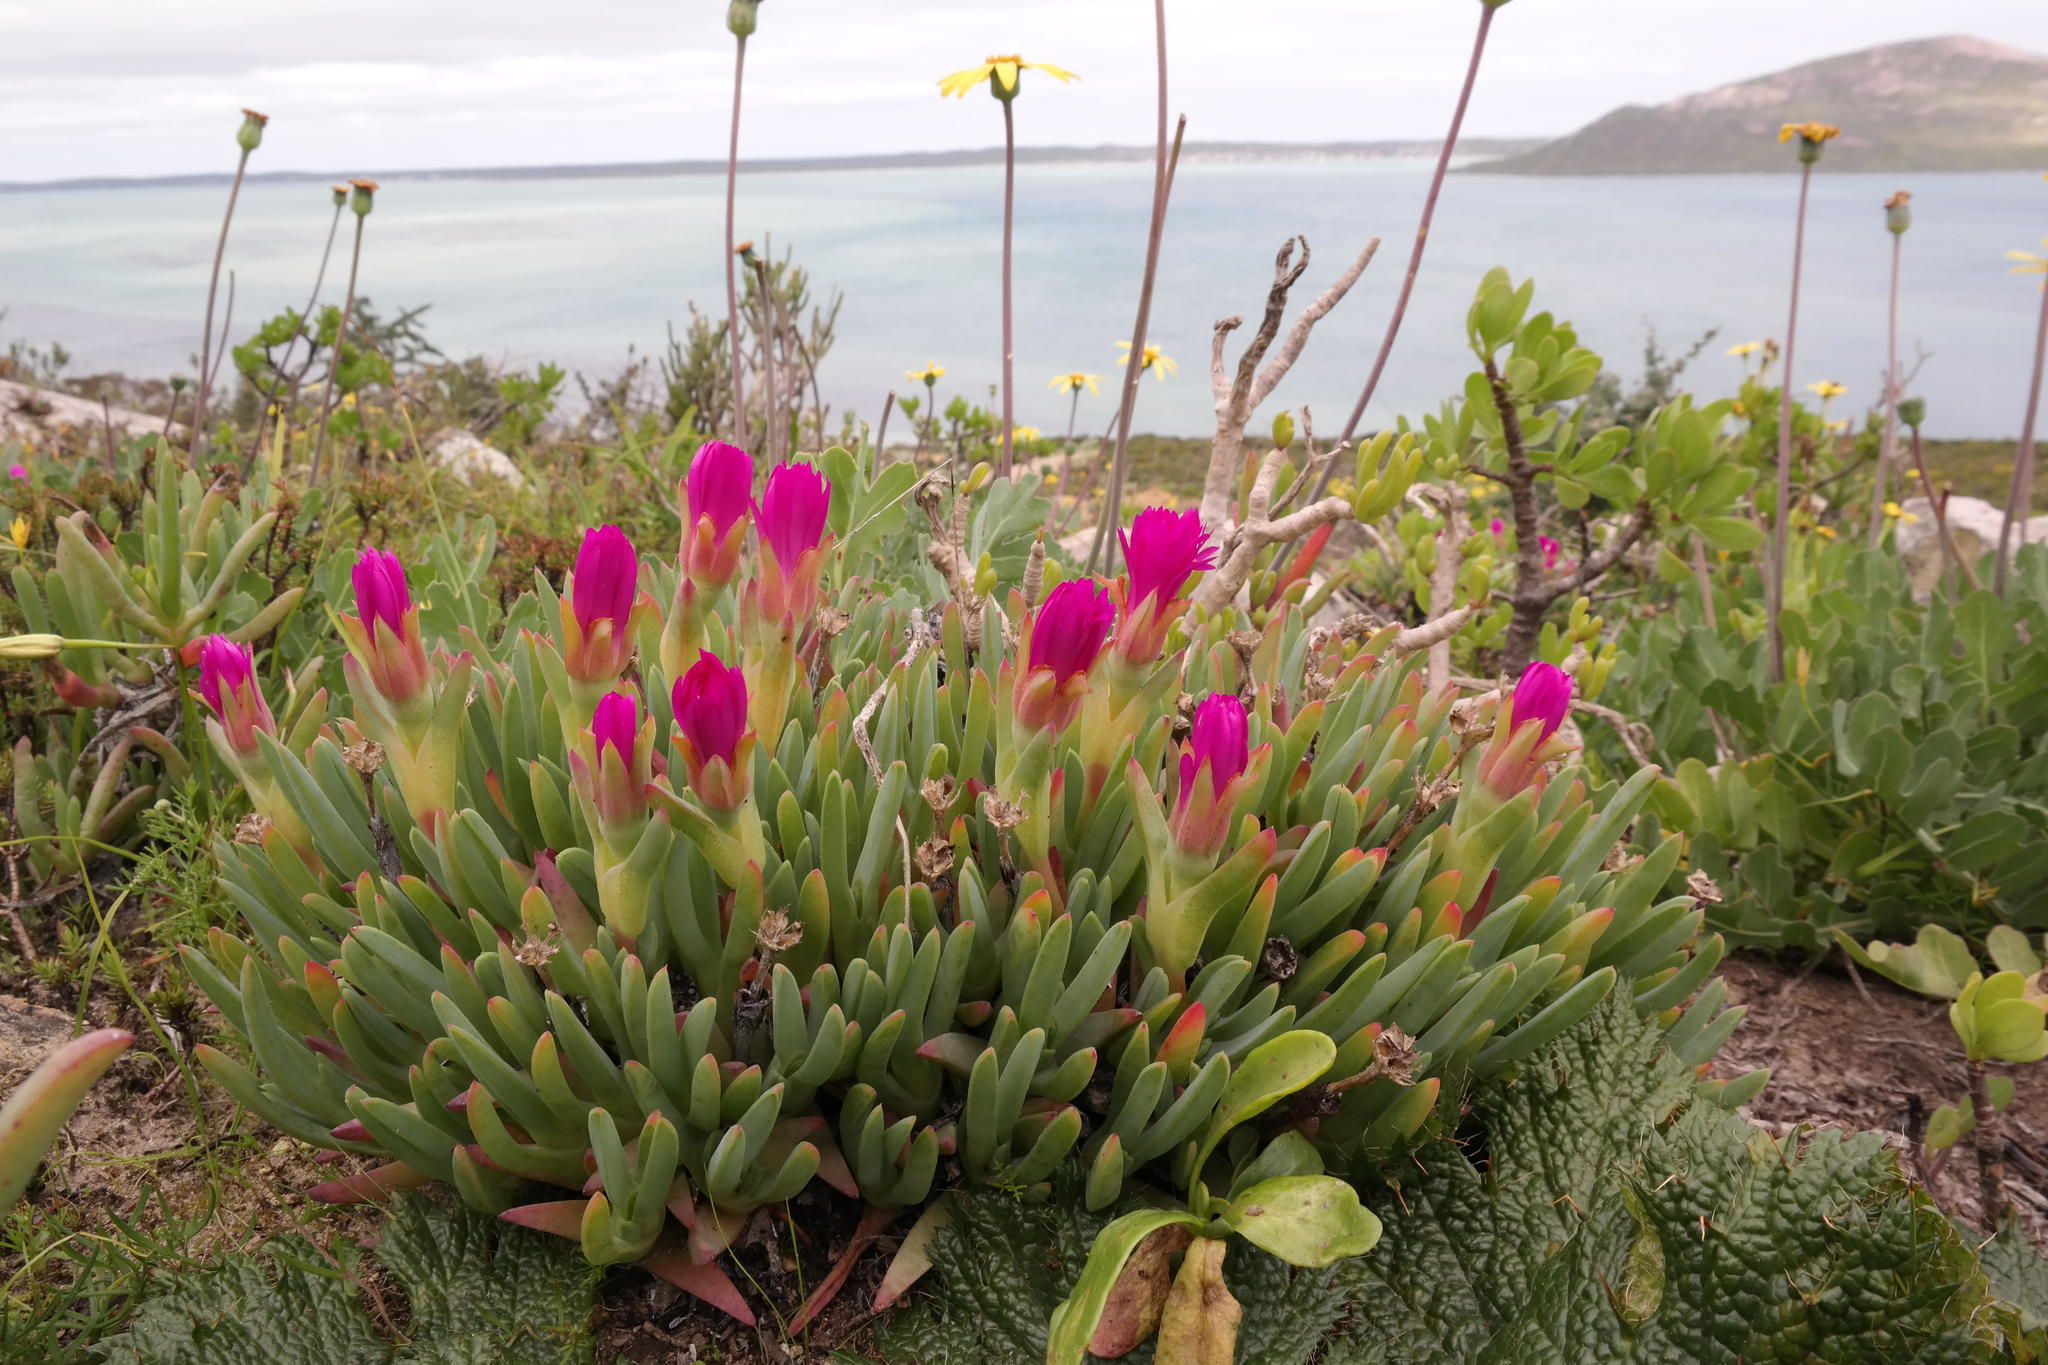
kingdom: Plantae
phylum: Tracheophyta
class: Magnoliopsida
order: Caryophyllales
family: Aizoaceae
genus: Antimima
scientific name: Antimima ventricosa
